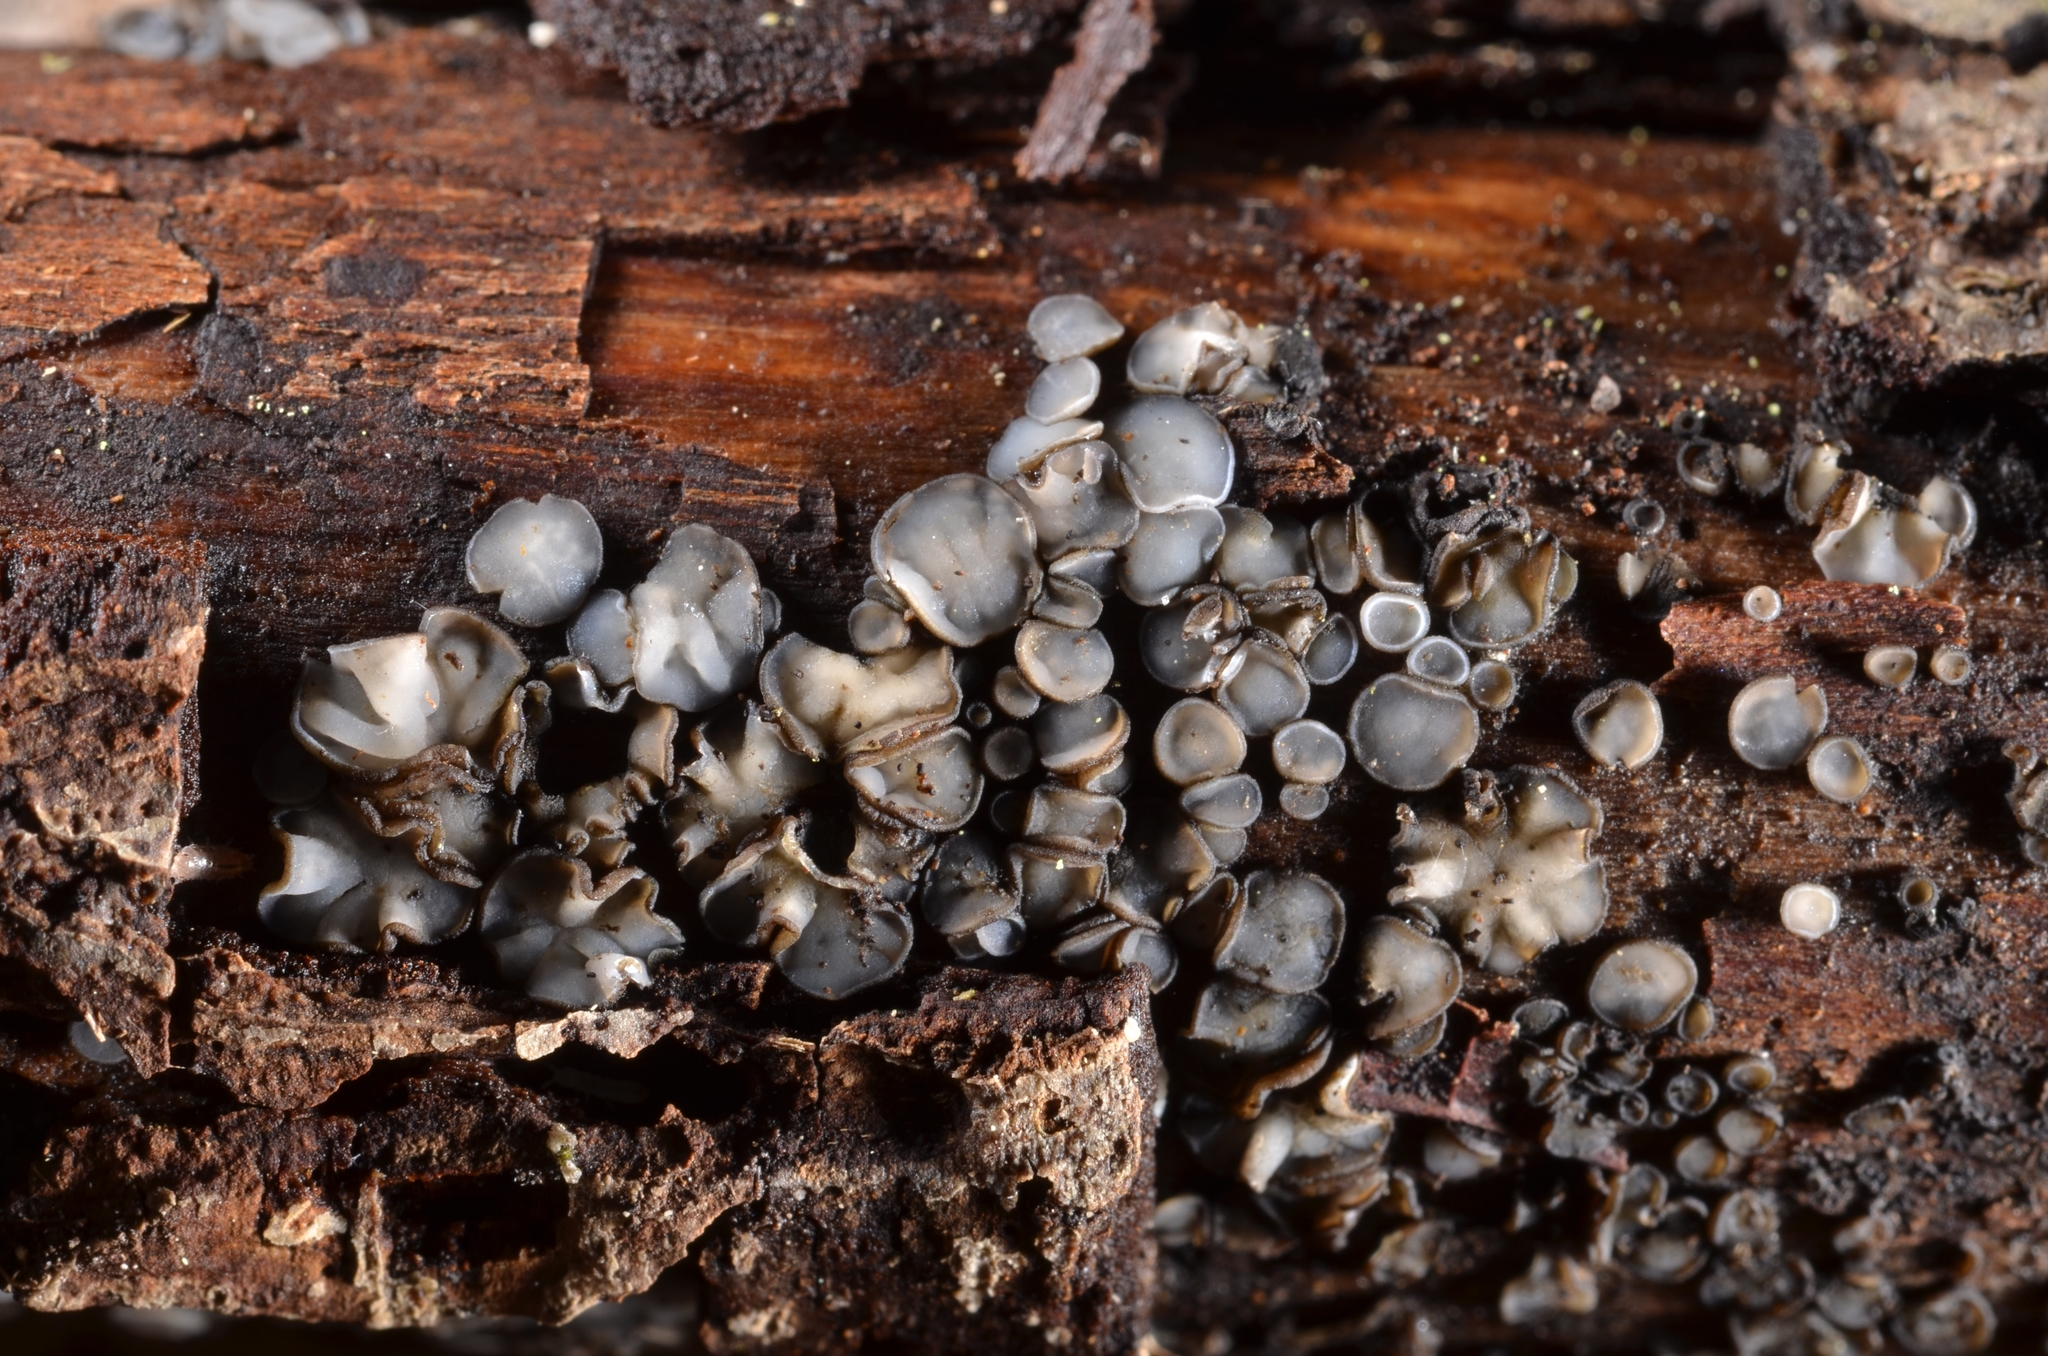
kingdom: Fungi
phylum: Ascomycota
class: Leotiomycetes
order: Helotiales
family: Mollisiaceae
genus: Mollisia
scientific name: Mollisia cinerea
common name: Common grey disco
